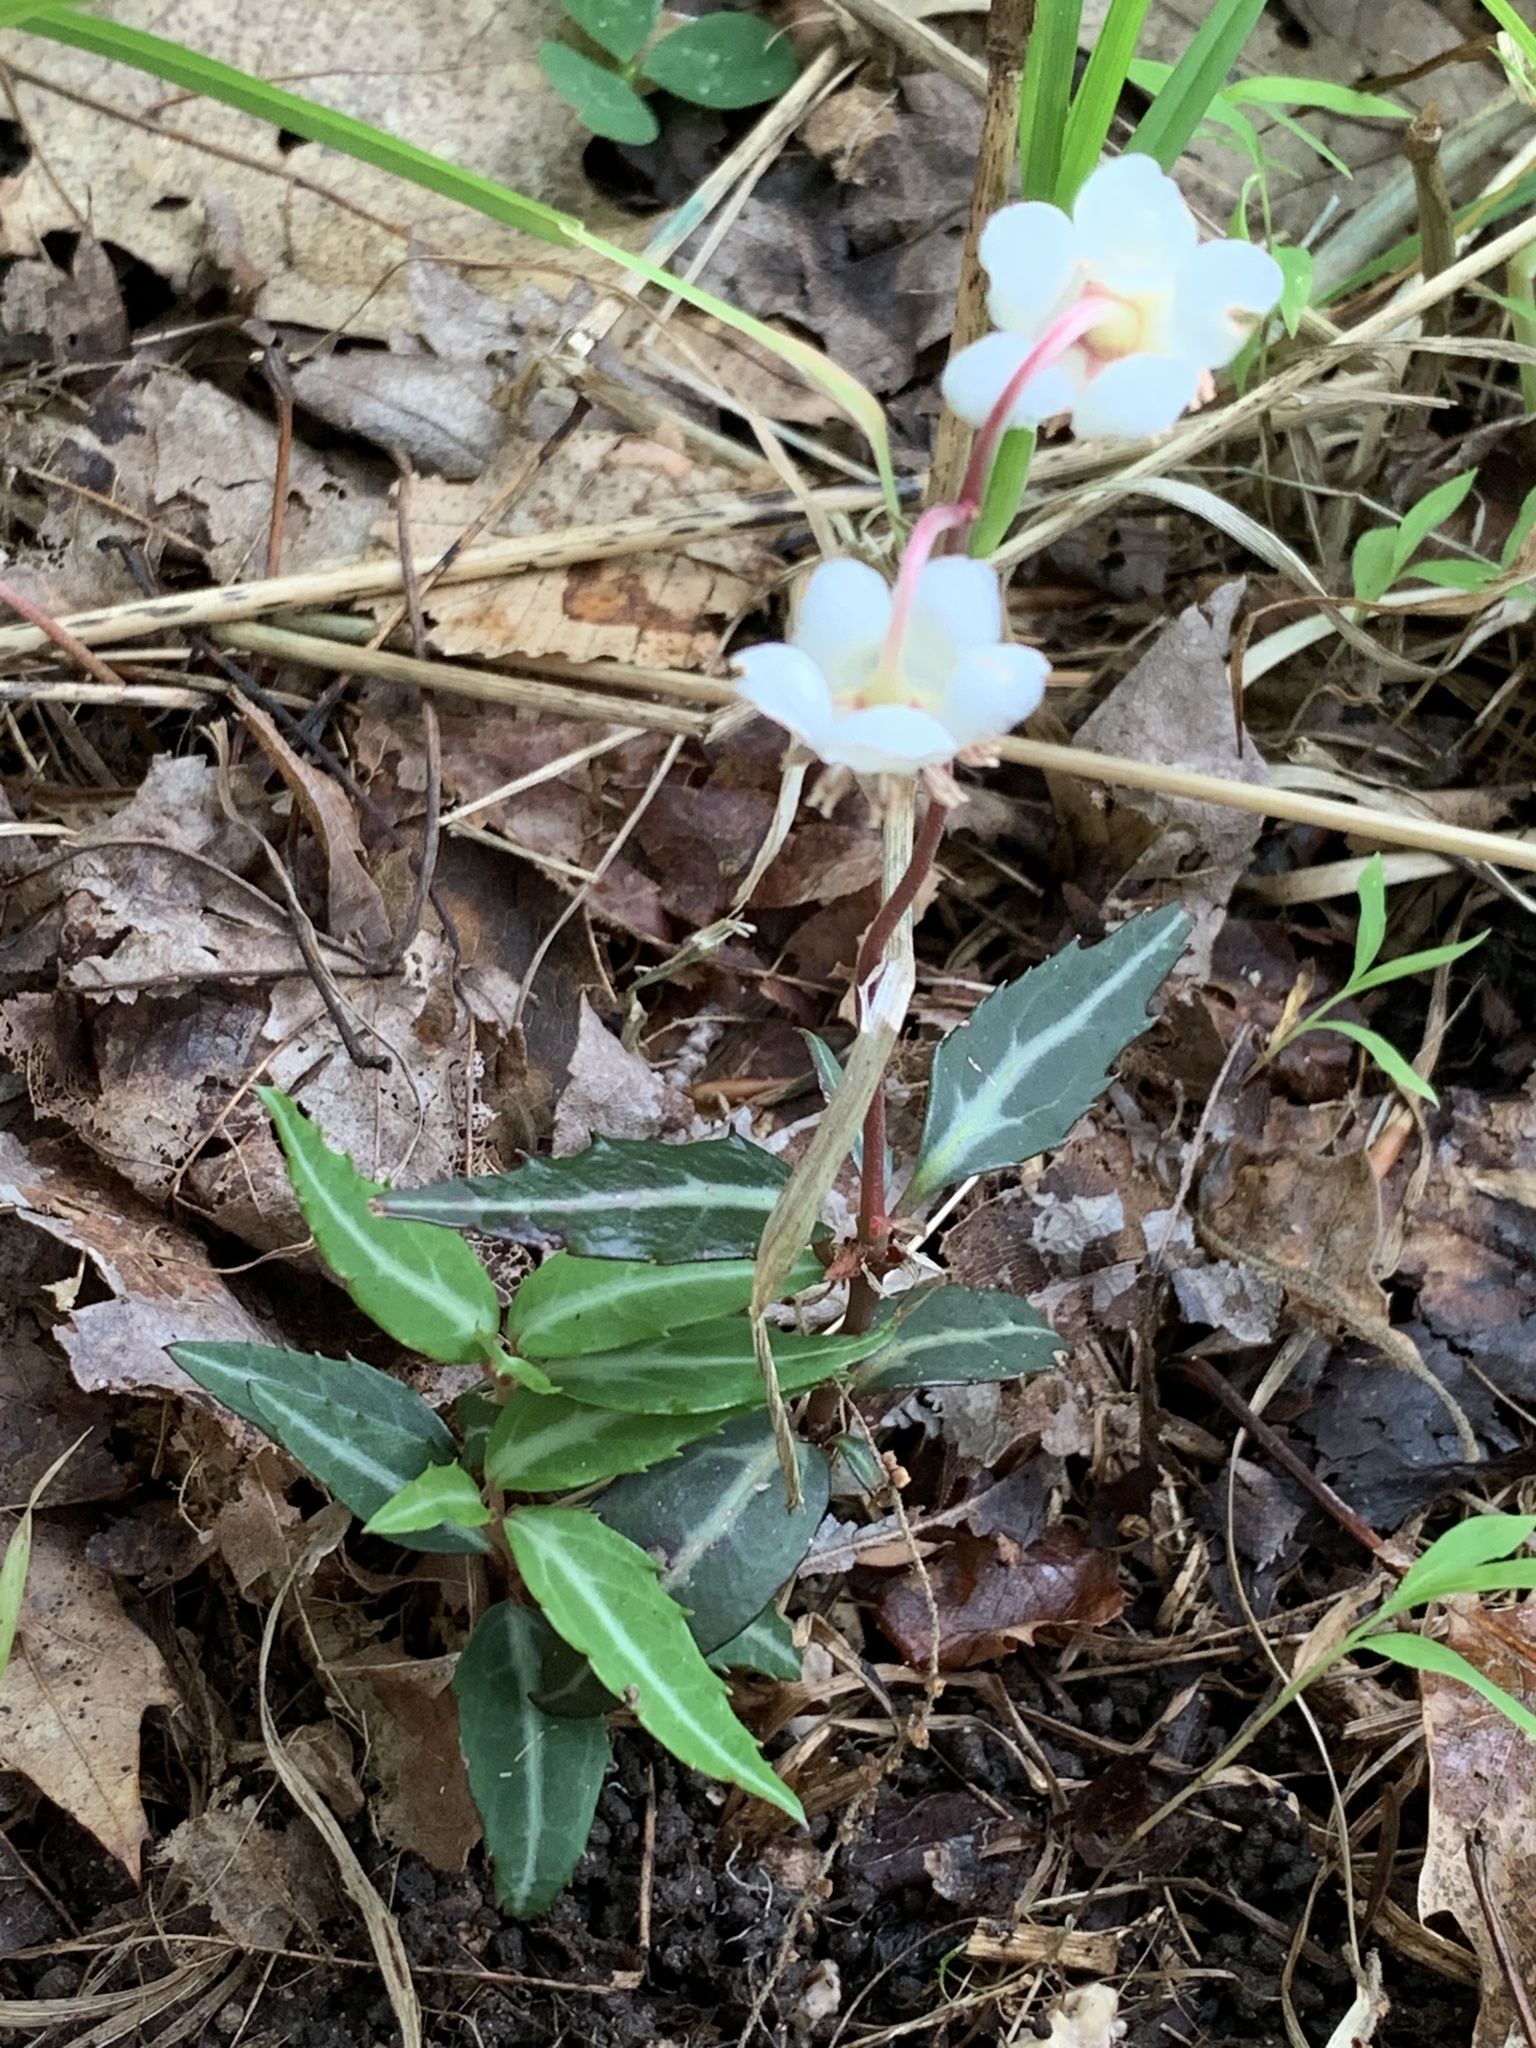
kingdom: Plantae
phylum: Tracheophyta
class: Magnoliopsida
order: Ericales
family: Ericaceae
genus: Chimaphila
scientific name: Chimaphila maculata
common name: Spotted pipsissewa
